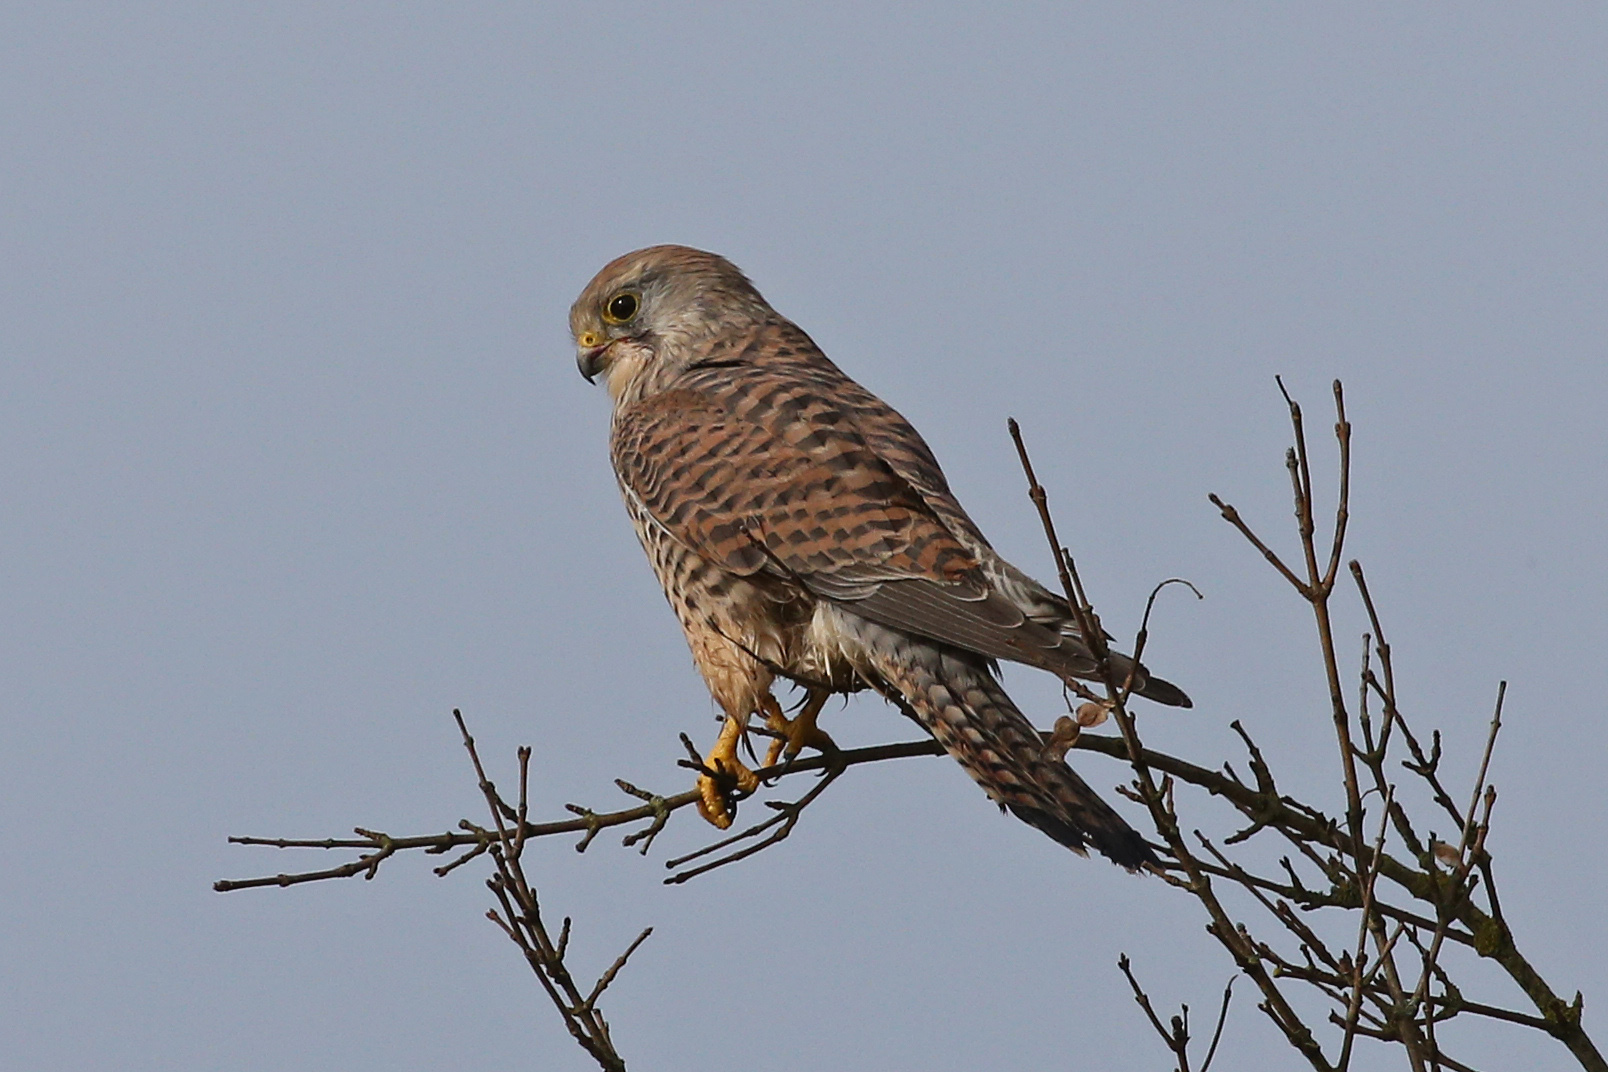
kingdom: Animalia
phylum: Chordata
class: Aves
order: Falconiformes
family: Falconidae
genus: Falco
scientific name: Falco tinnunculus
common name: Common kestrel
